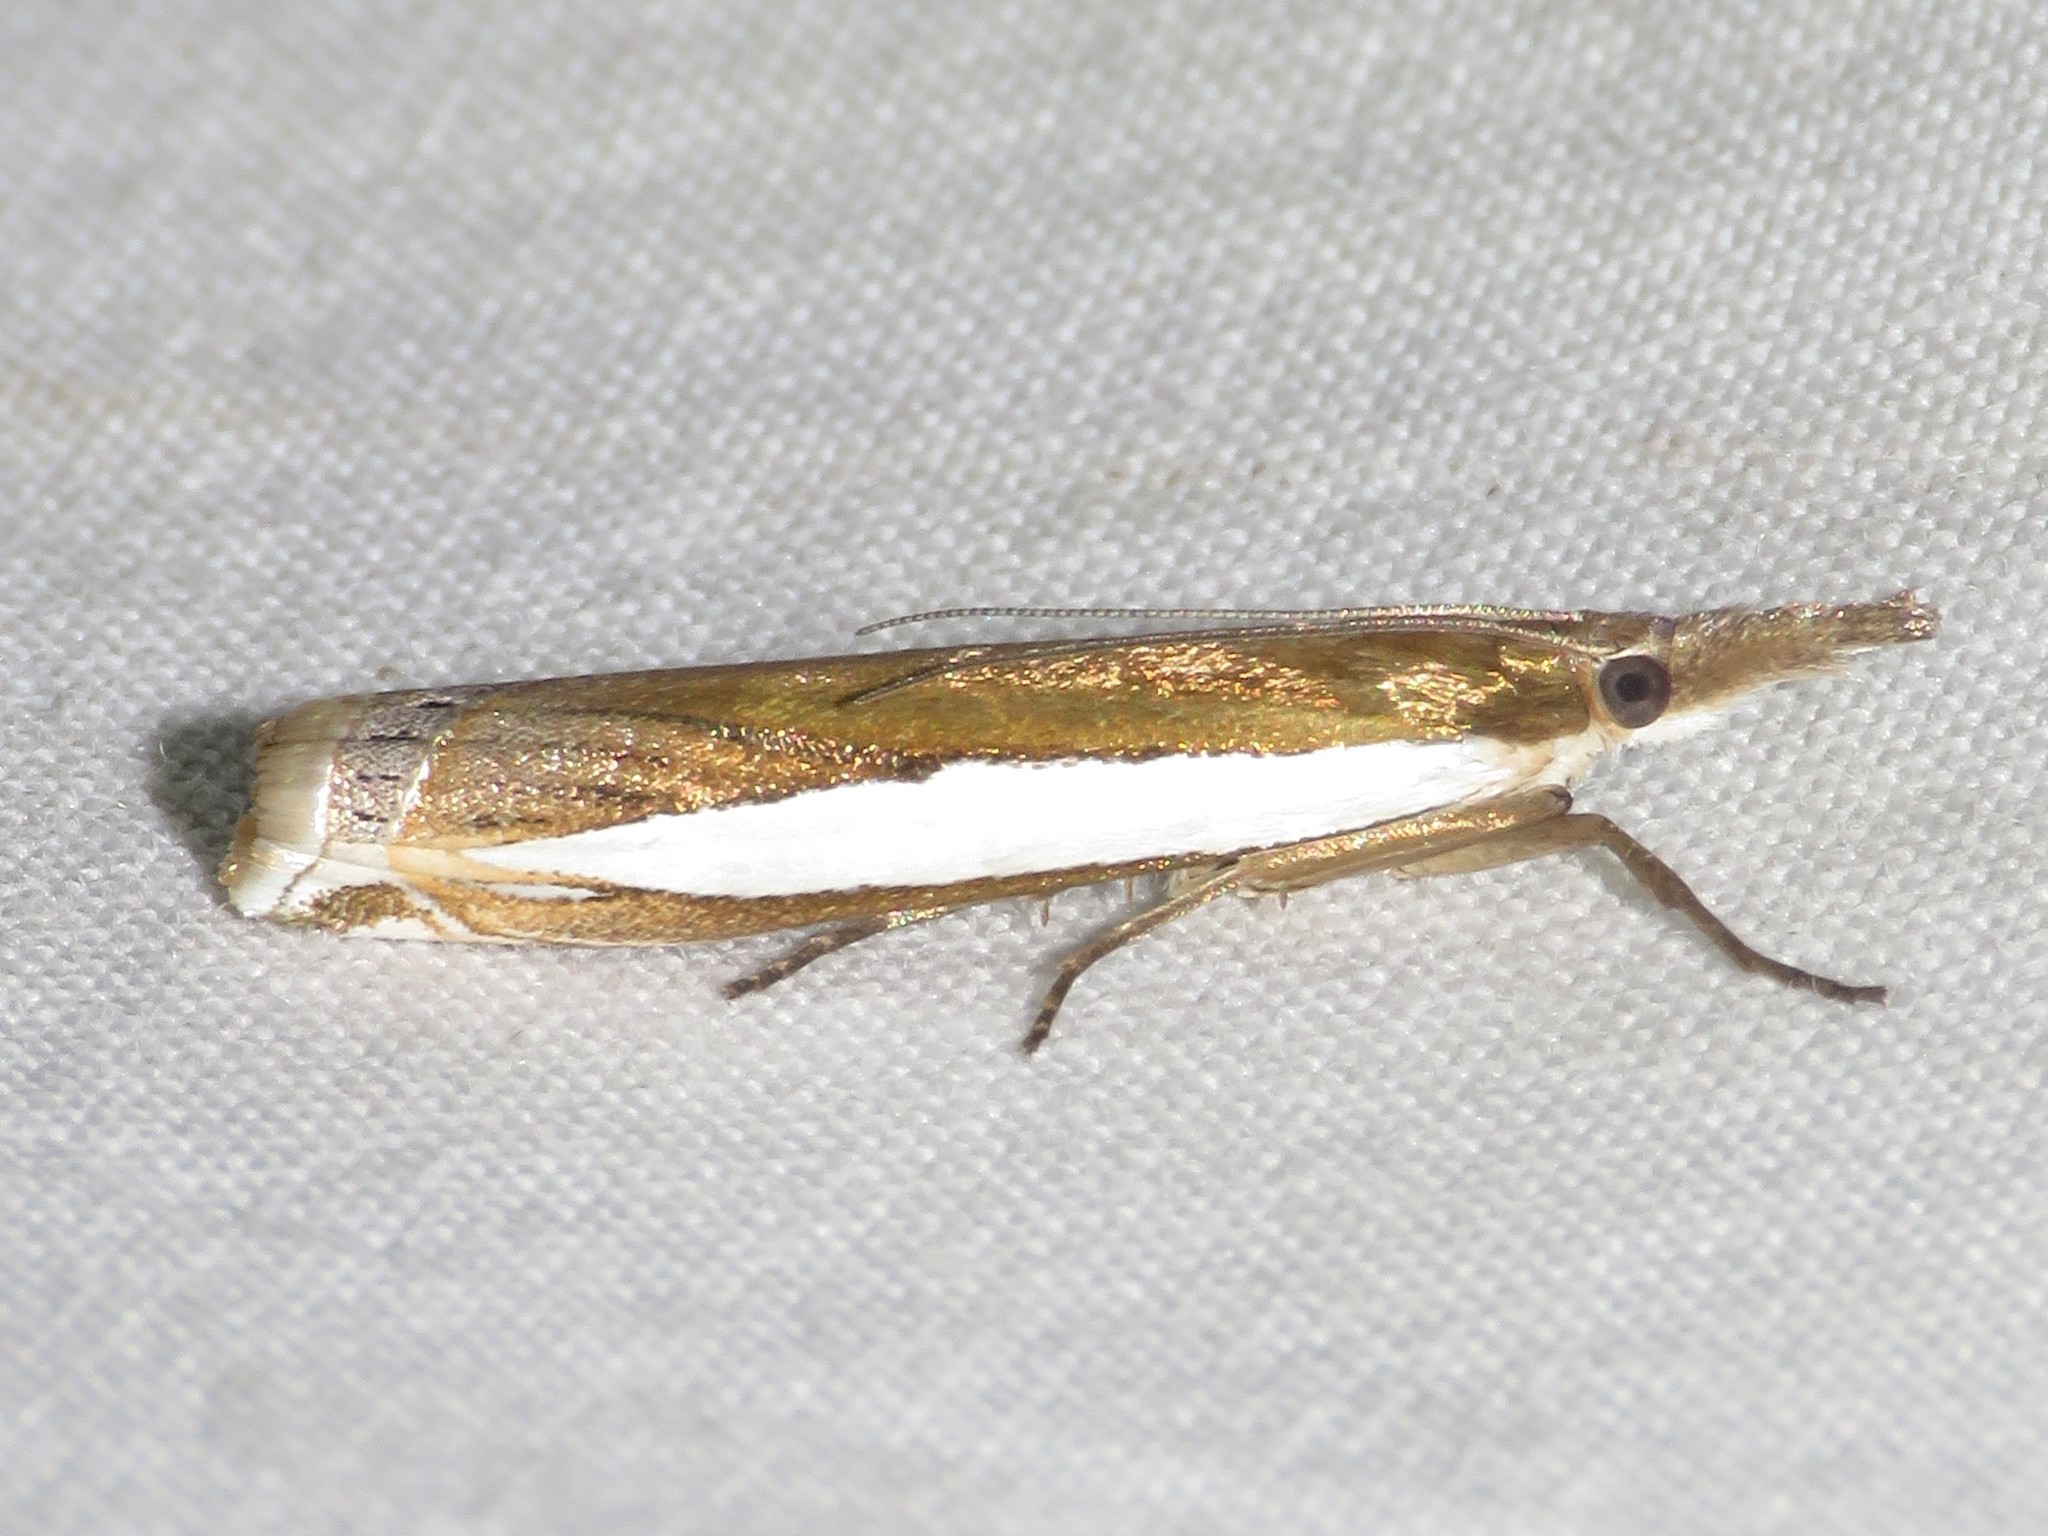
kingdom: Animalia
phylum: Arthropoda
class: Insecta
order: Lepidoptera
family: Crambidae
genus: Crambus
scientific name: Crambus leachellus
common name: Leach's grass-veneer
